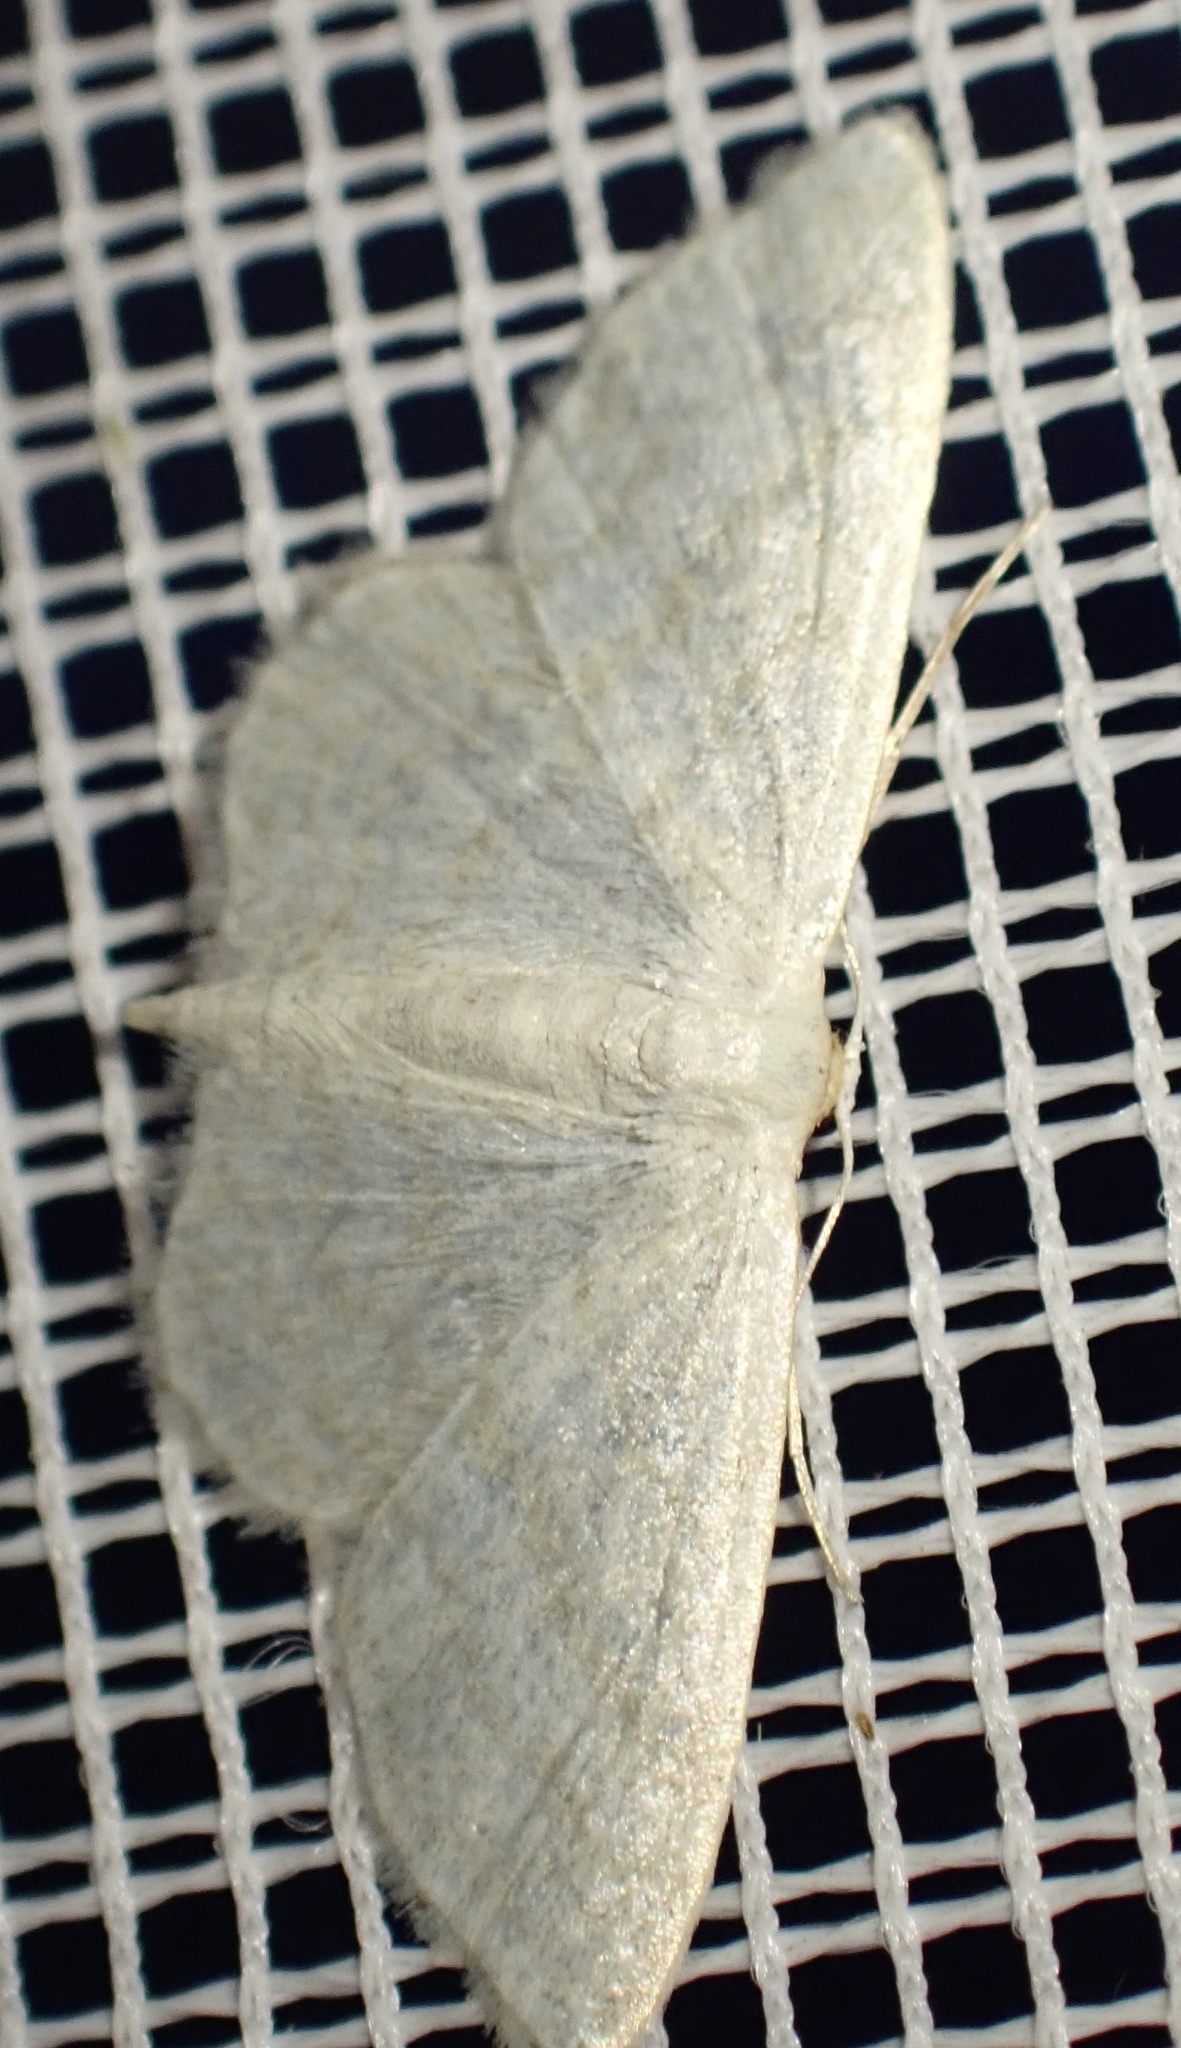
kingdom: Animalia
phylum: Arthropoda
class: Insecta
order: Lepidoptera
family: Geometridae
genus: Idaea
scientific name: Idaea subsericeata
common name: Satin wave
